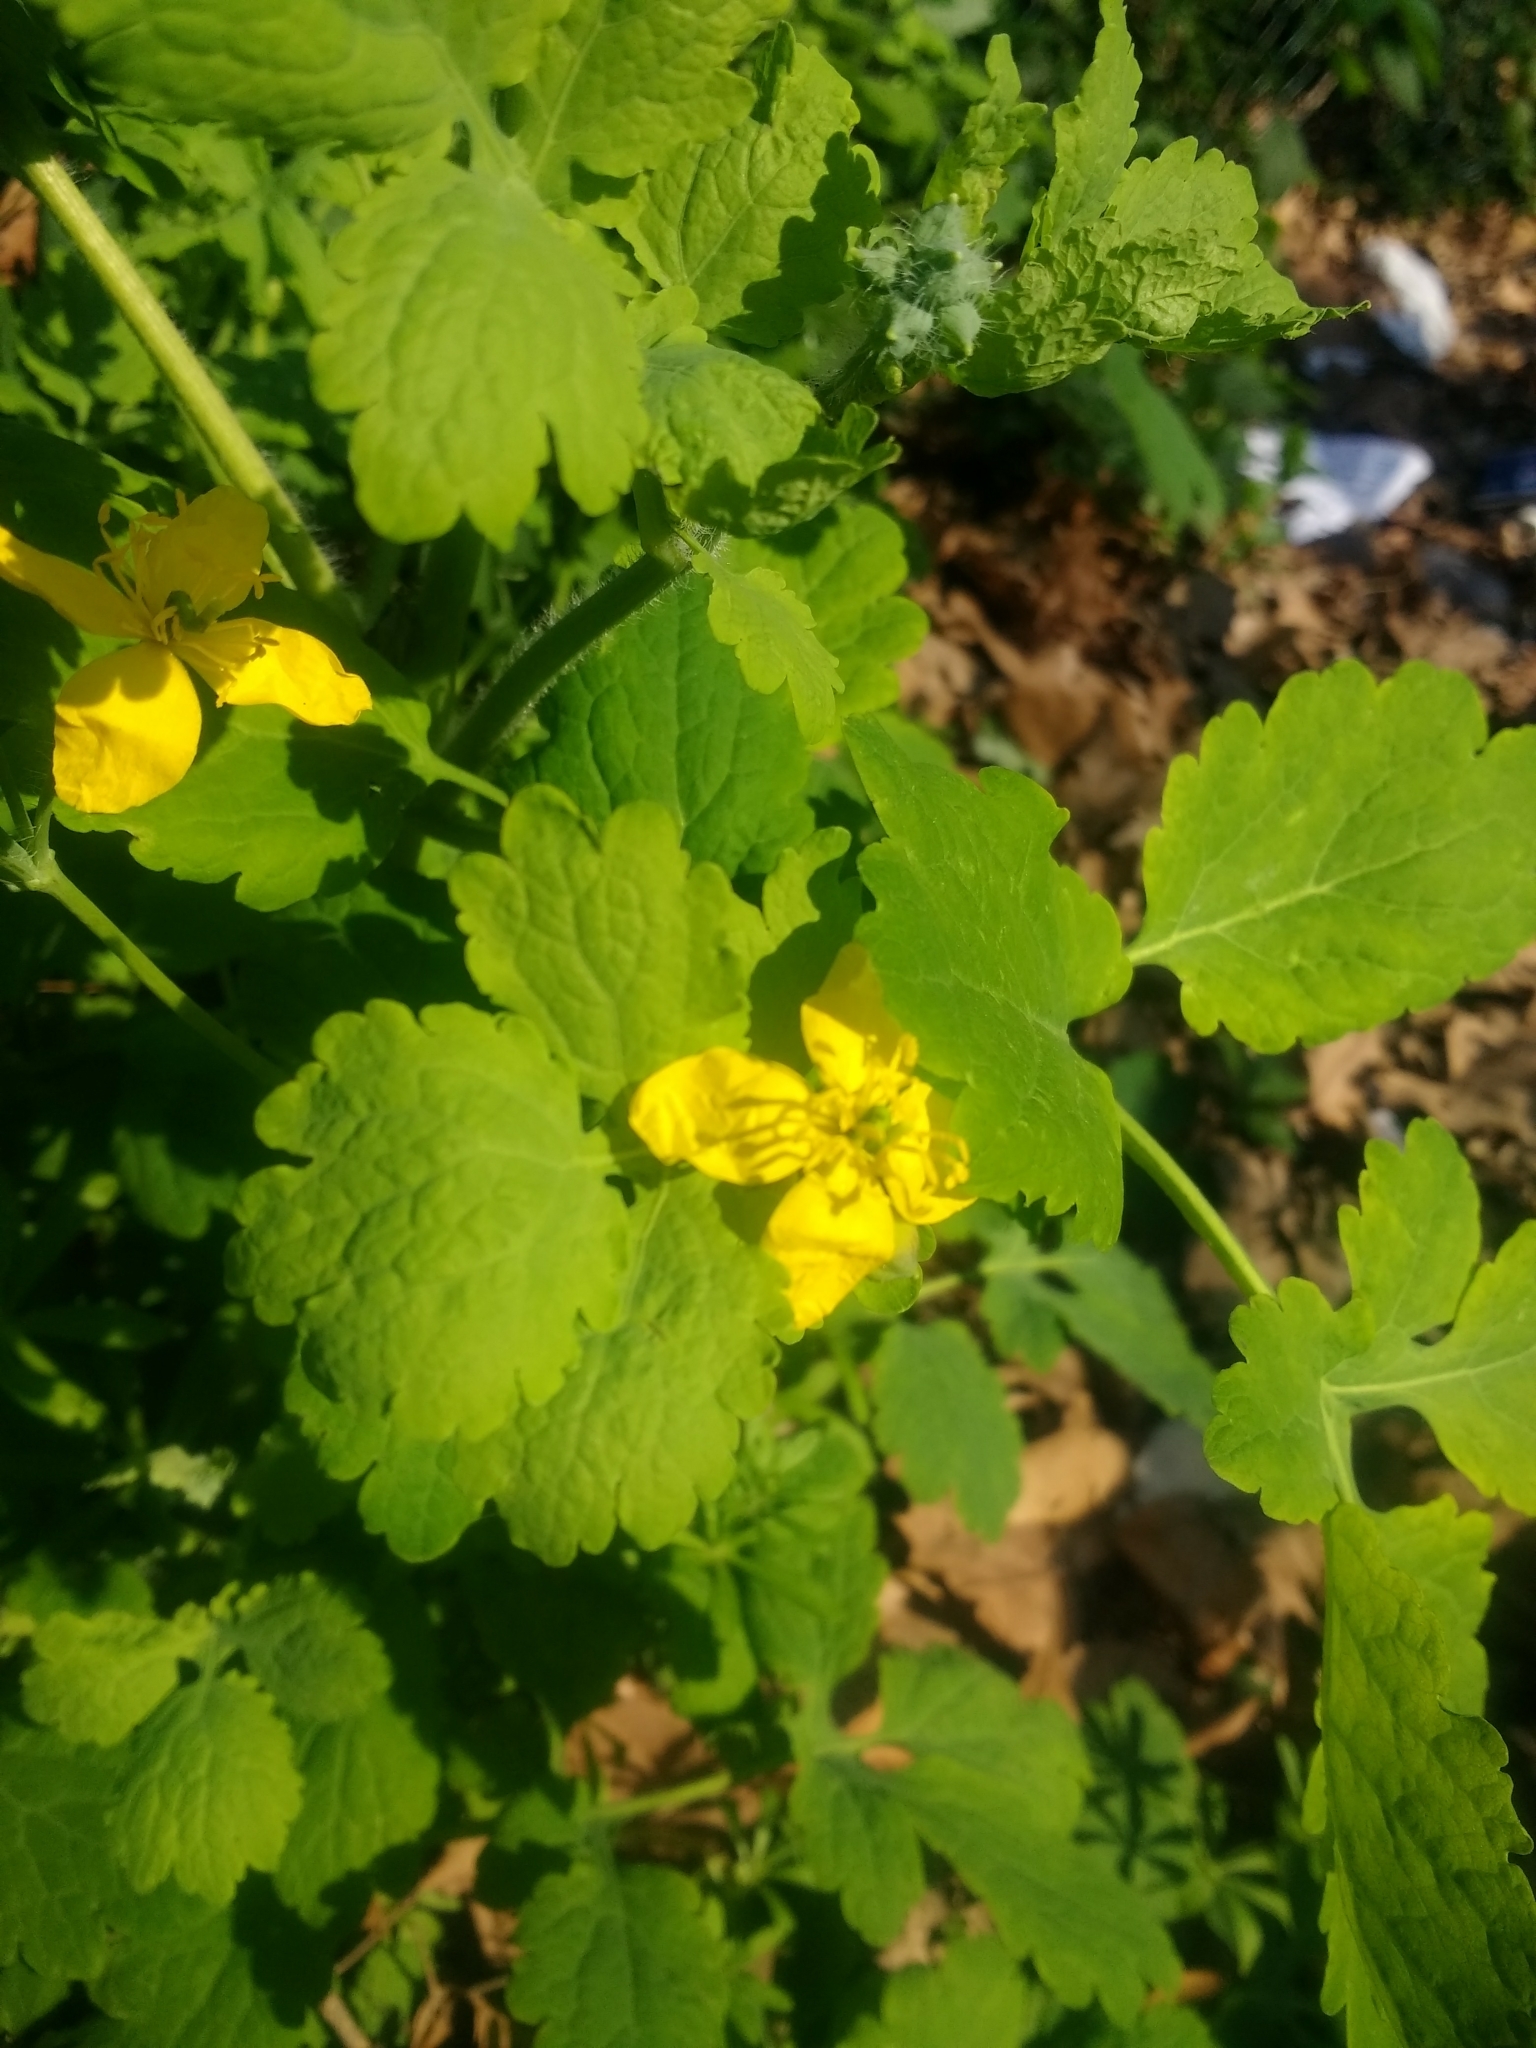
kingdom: Plantae
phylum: Tracheophyta
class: Magnoliopsida
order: Ranunculales
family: Papaveraceae
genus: Chelidonium
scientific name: Chelidonium majus
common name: Greater celandine
